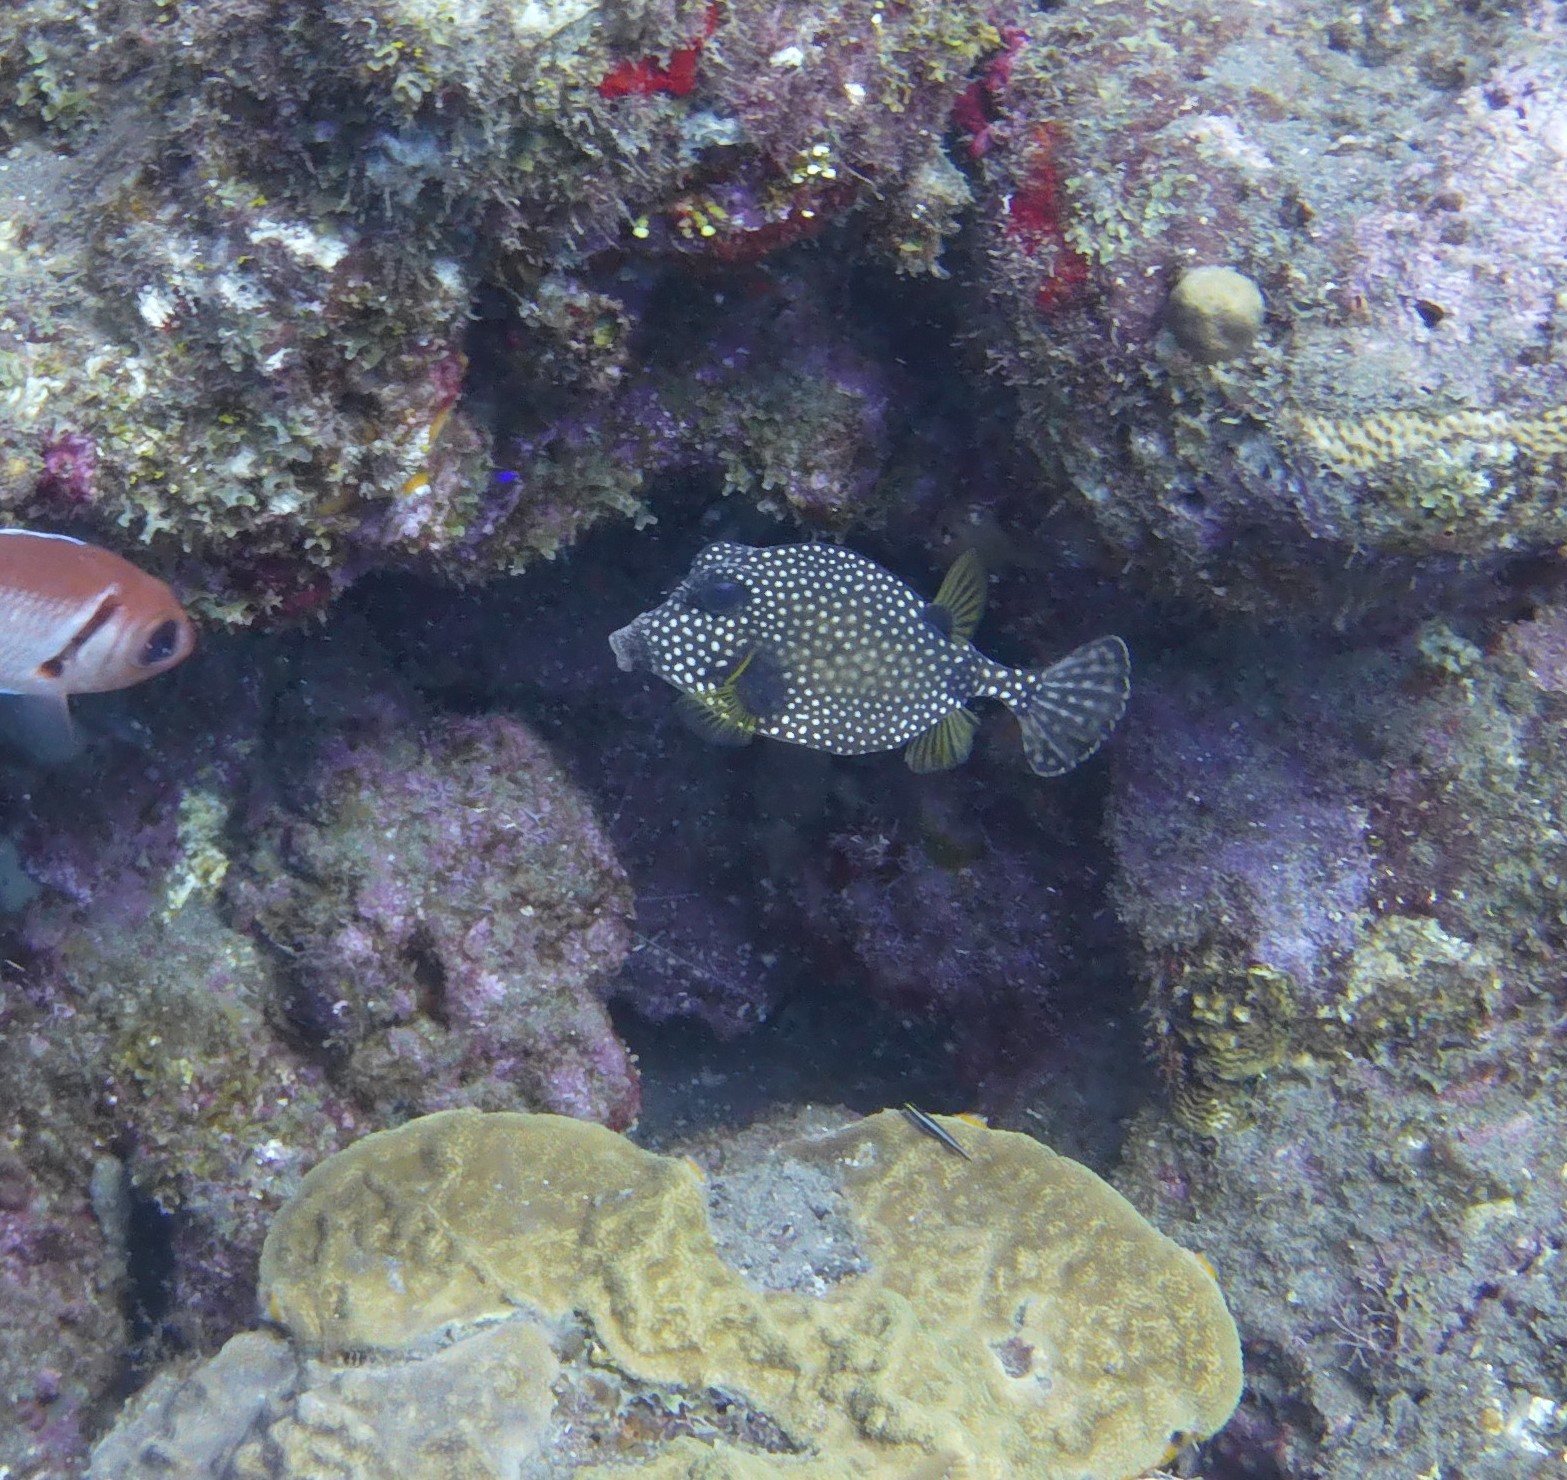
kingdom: Animalia
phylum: Chordata
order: Tetraodontiformes
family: Ostraciidae
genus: Lactophrys
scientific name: Lactophrys triqueter
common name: Smooth trunkfish
